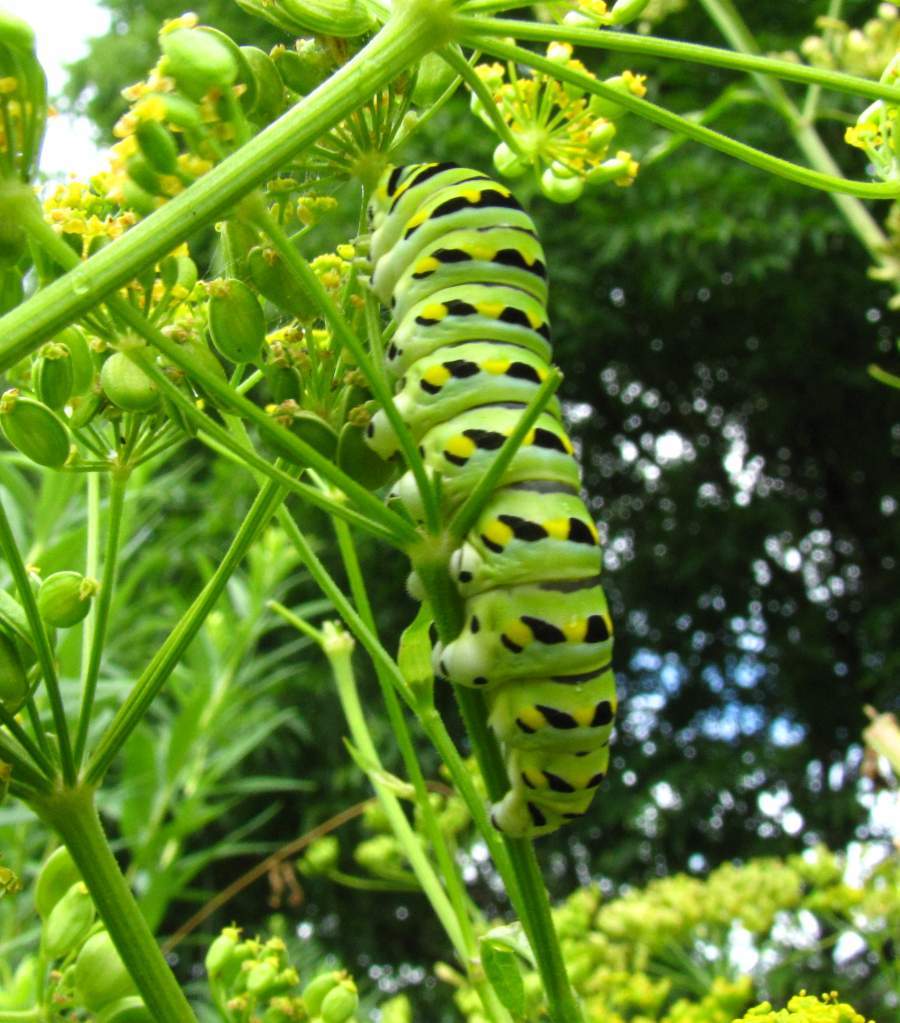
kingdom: Animalia
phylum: Arthropoda
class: Insecta
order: Lepidoptera
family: Papilionidae
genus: Papilio
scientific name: Papilio polyxenes
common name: Black swallowtail
